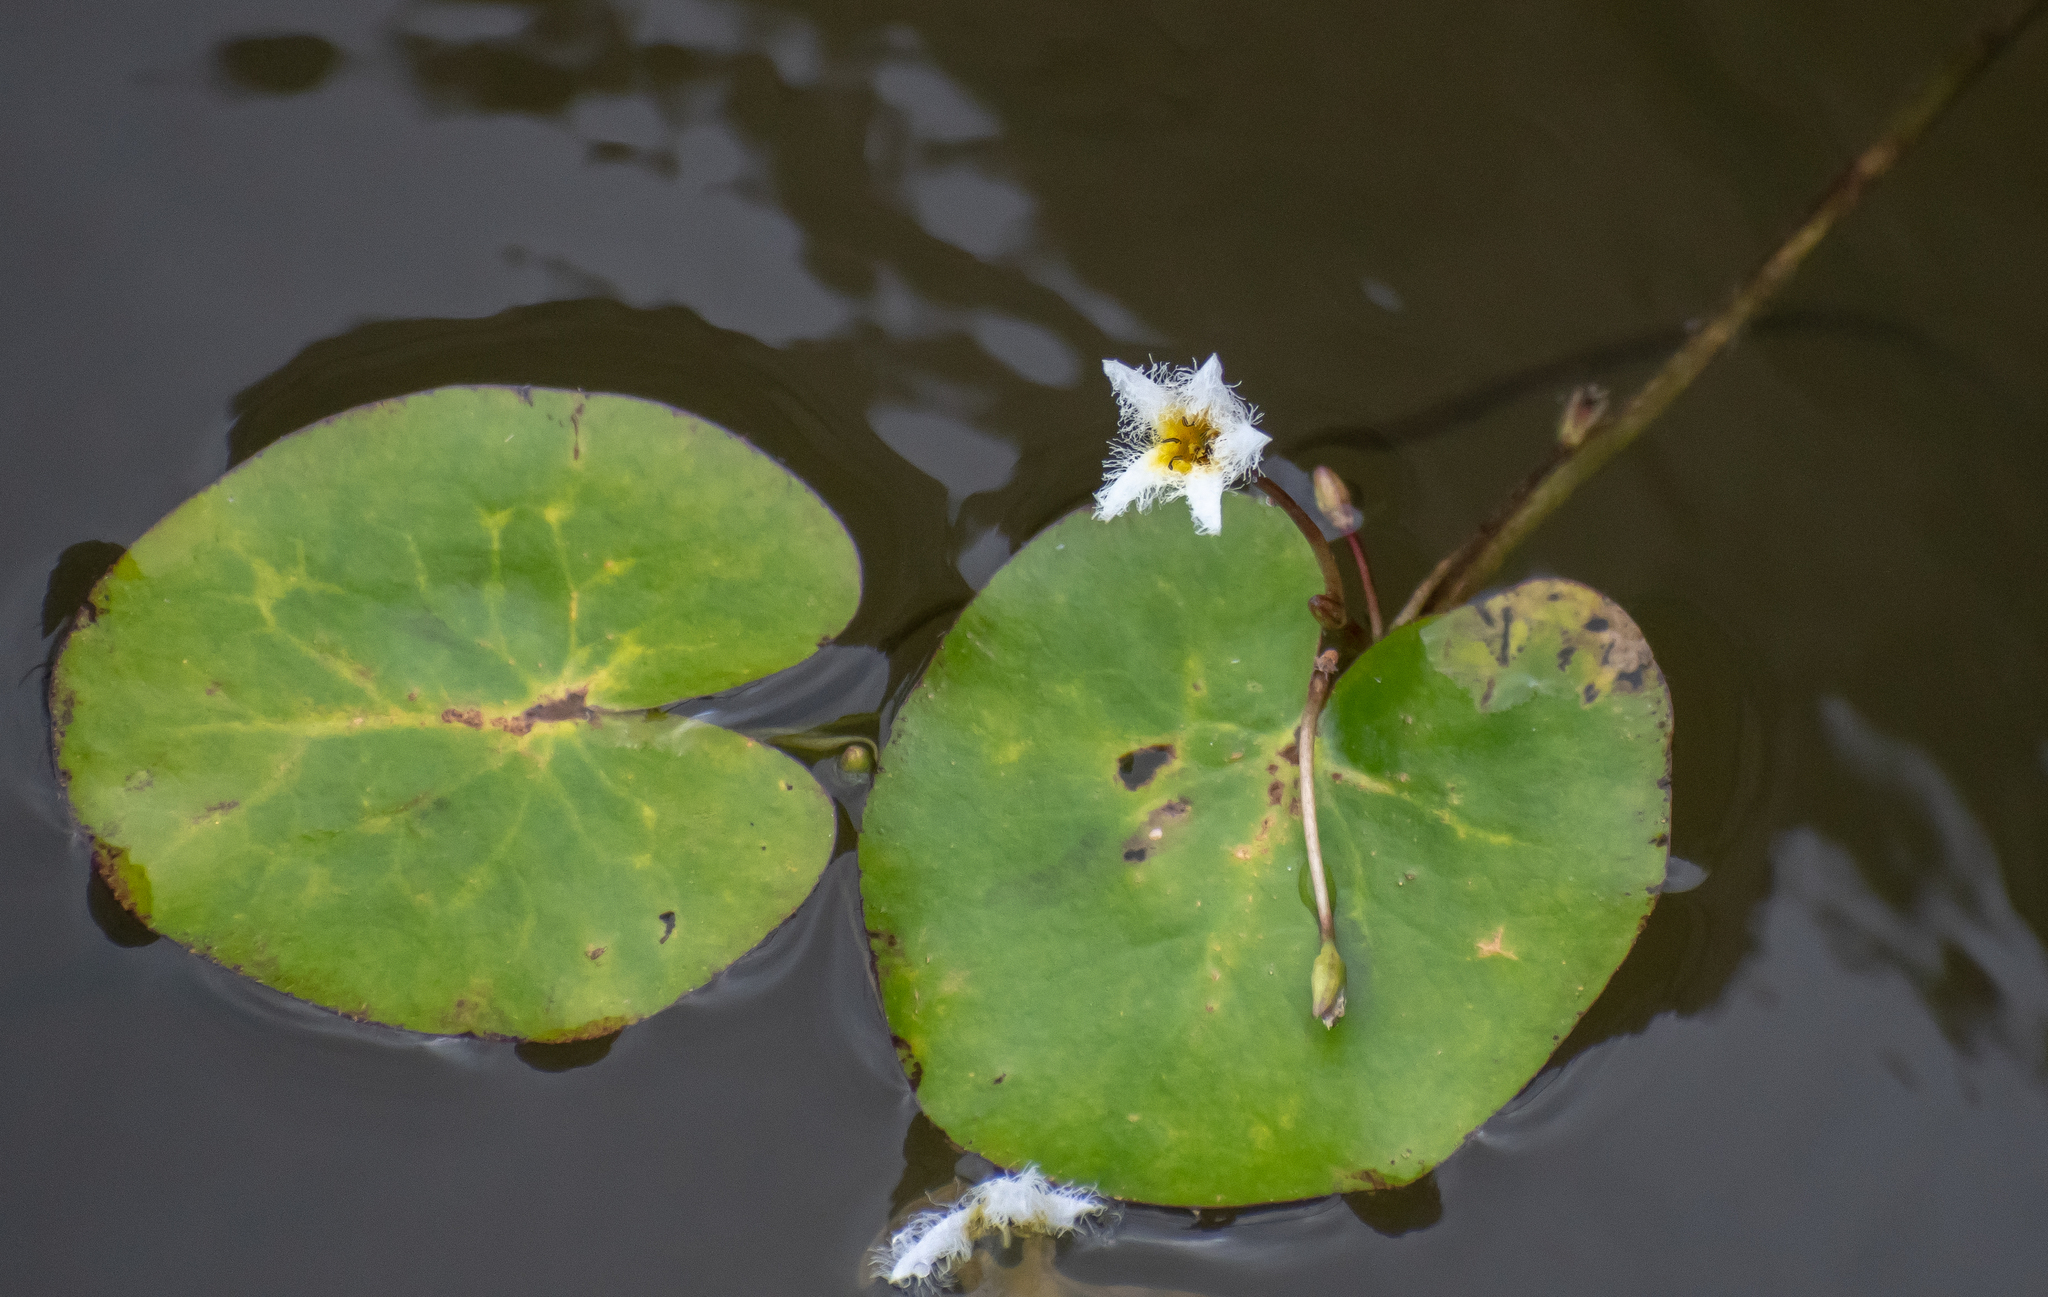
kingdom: Plantae
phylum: Tracheophyta
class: Magnoliopsida
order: Asterales
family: Menyanthaceae
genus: Nymphoides
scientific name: Nymphoides humboldtiana
